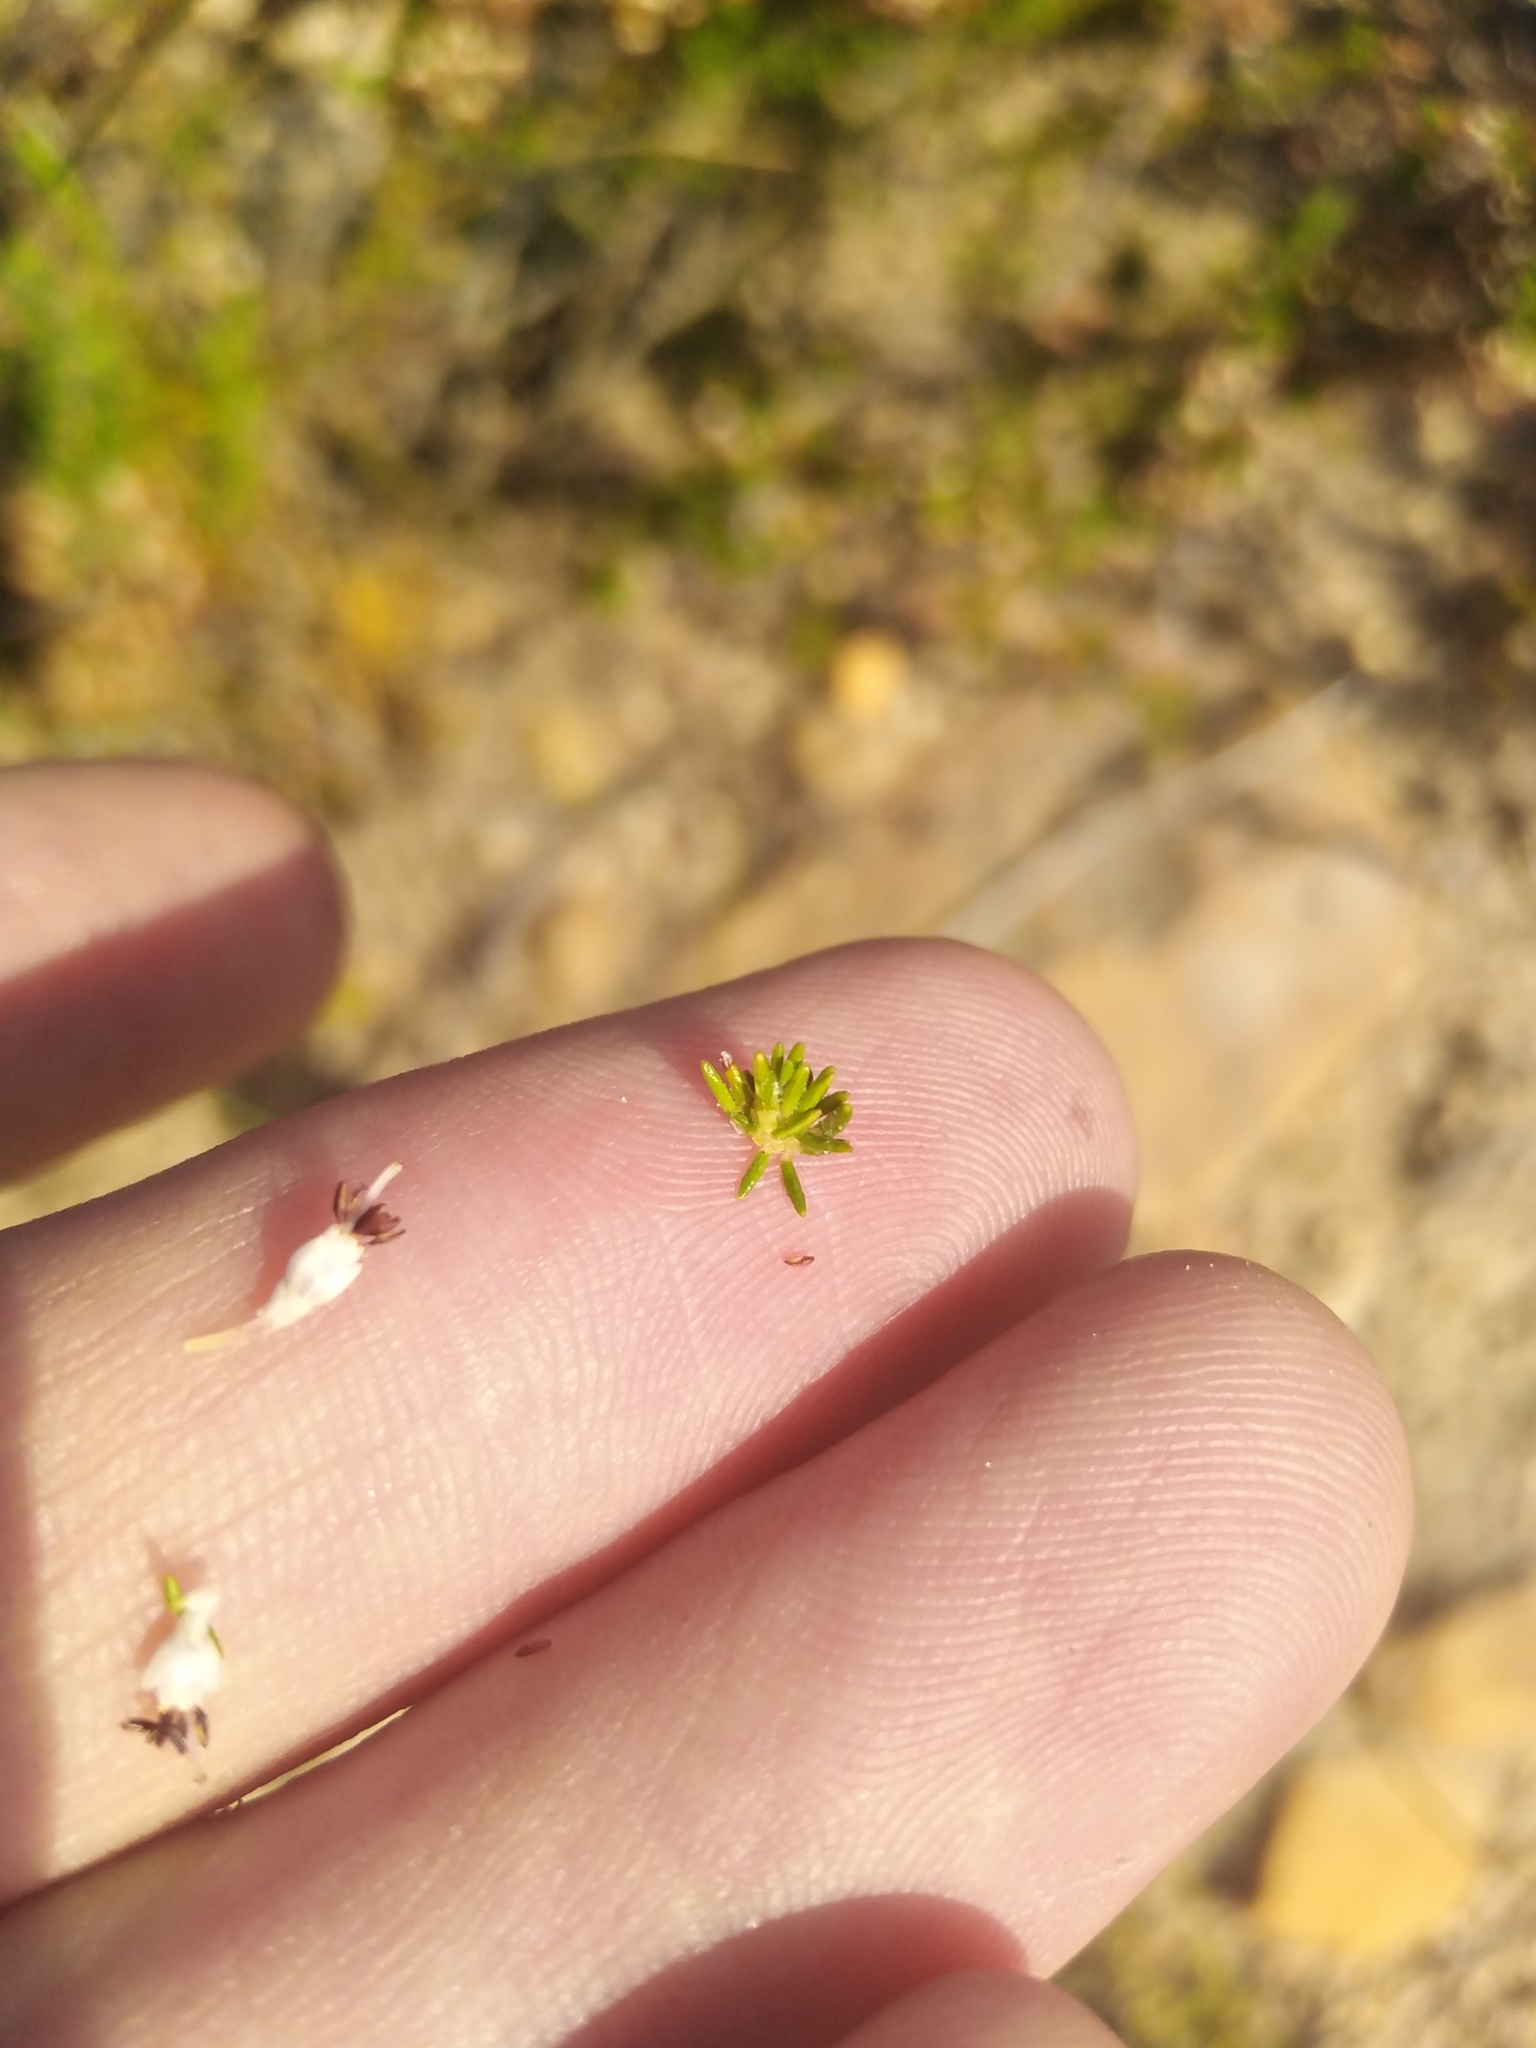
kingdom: Plantae
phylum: Tracheophyta
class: Magnoliopsida
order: Ericales
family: Ericaceae
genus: Erica
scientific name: Erica imbricata
